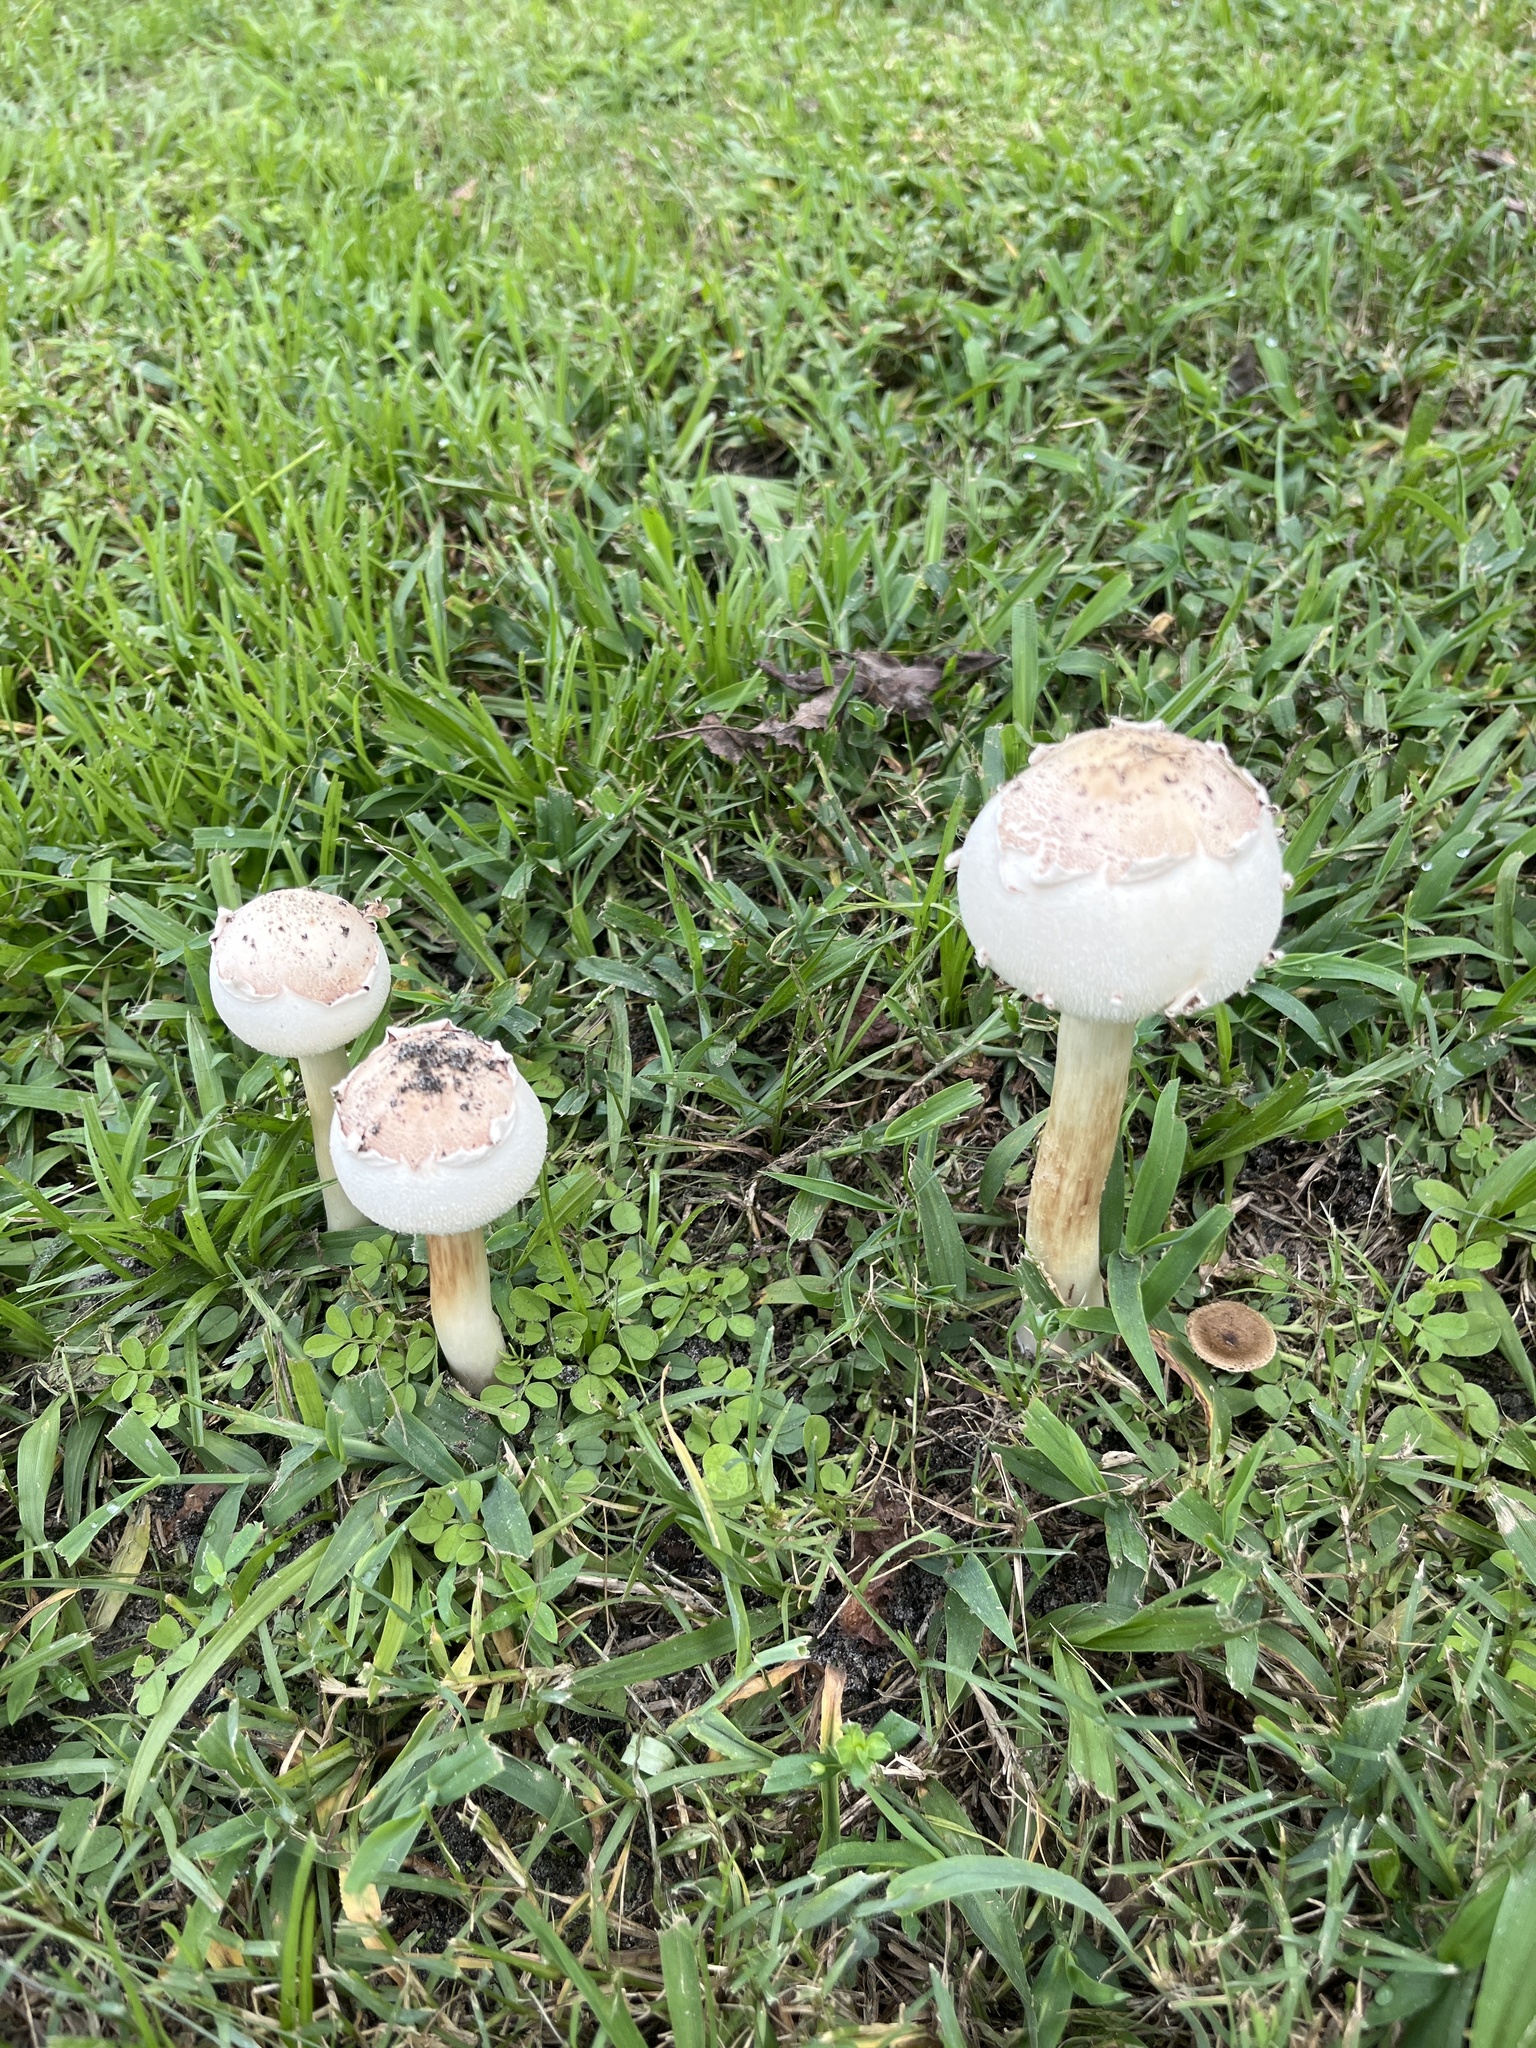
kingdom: Fungi
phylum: Basidiomycota
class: Agaricomycetes
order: Agaricales
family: Agaricaceae
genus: Chlorophyllum
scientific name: Chlorophyllum molybdites
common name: False parasol
